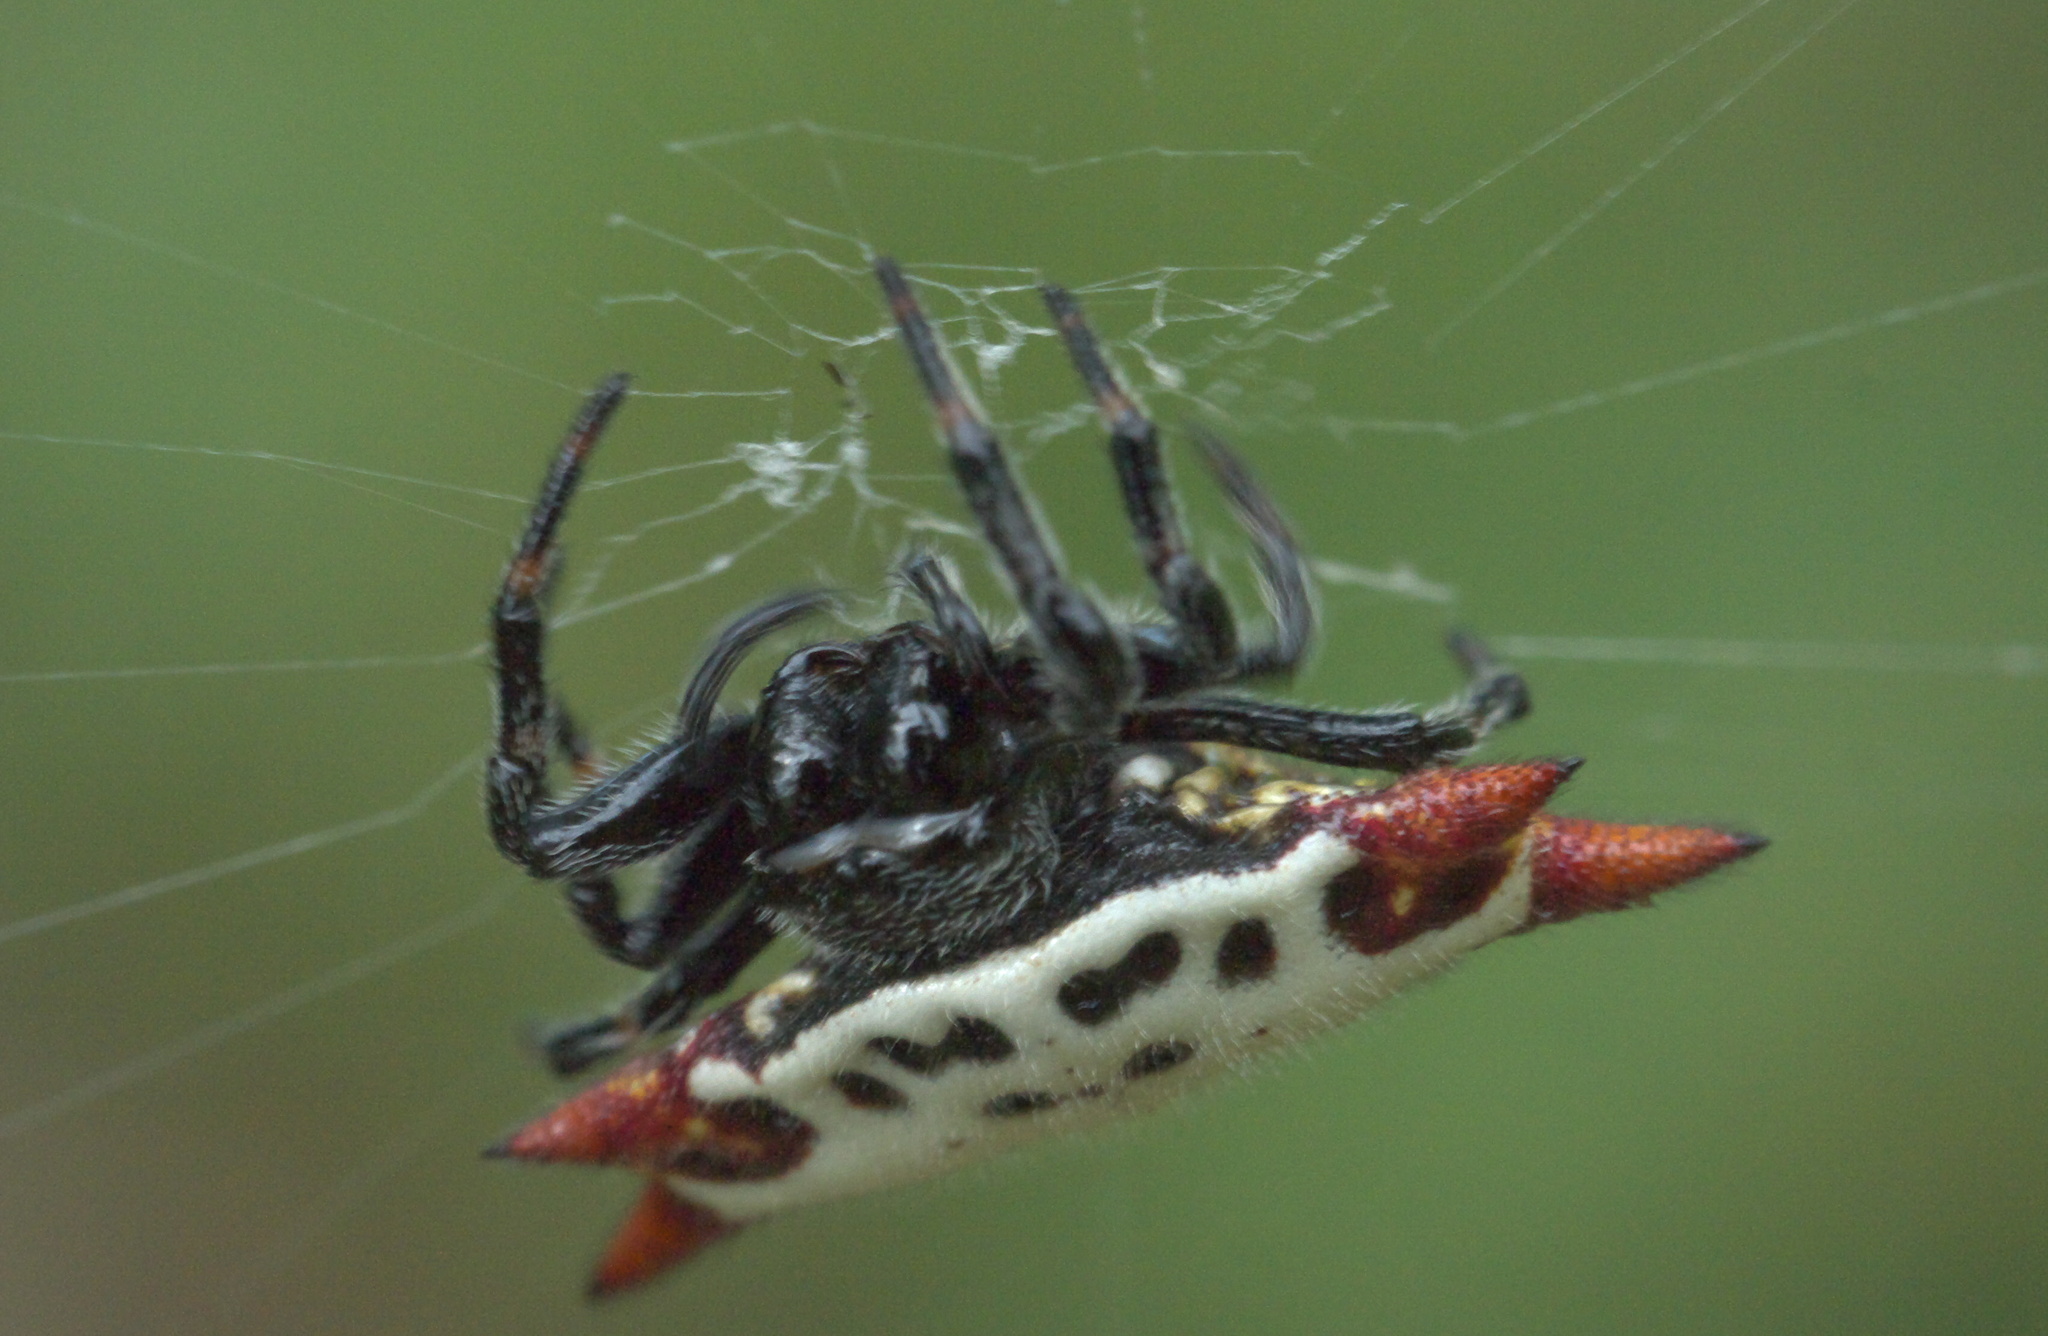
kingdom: Animalia
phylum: Arthropoda
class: Arachnida
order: Araneae
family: Araneidae
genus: Gasteracantha
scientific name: Gasteracantha cancriformis
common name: Orb weavers
